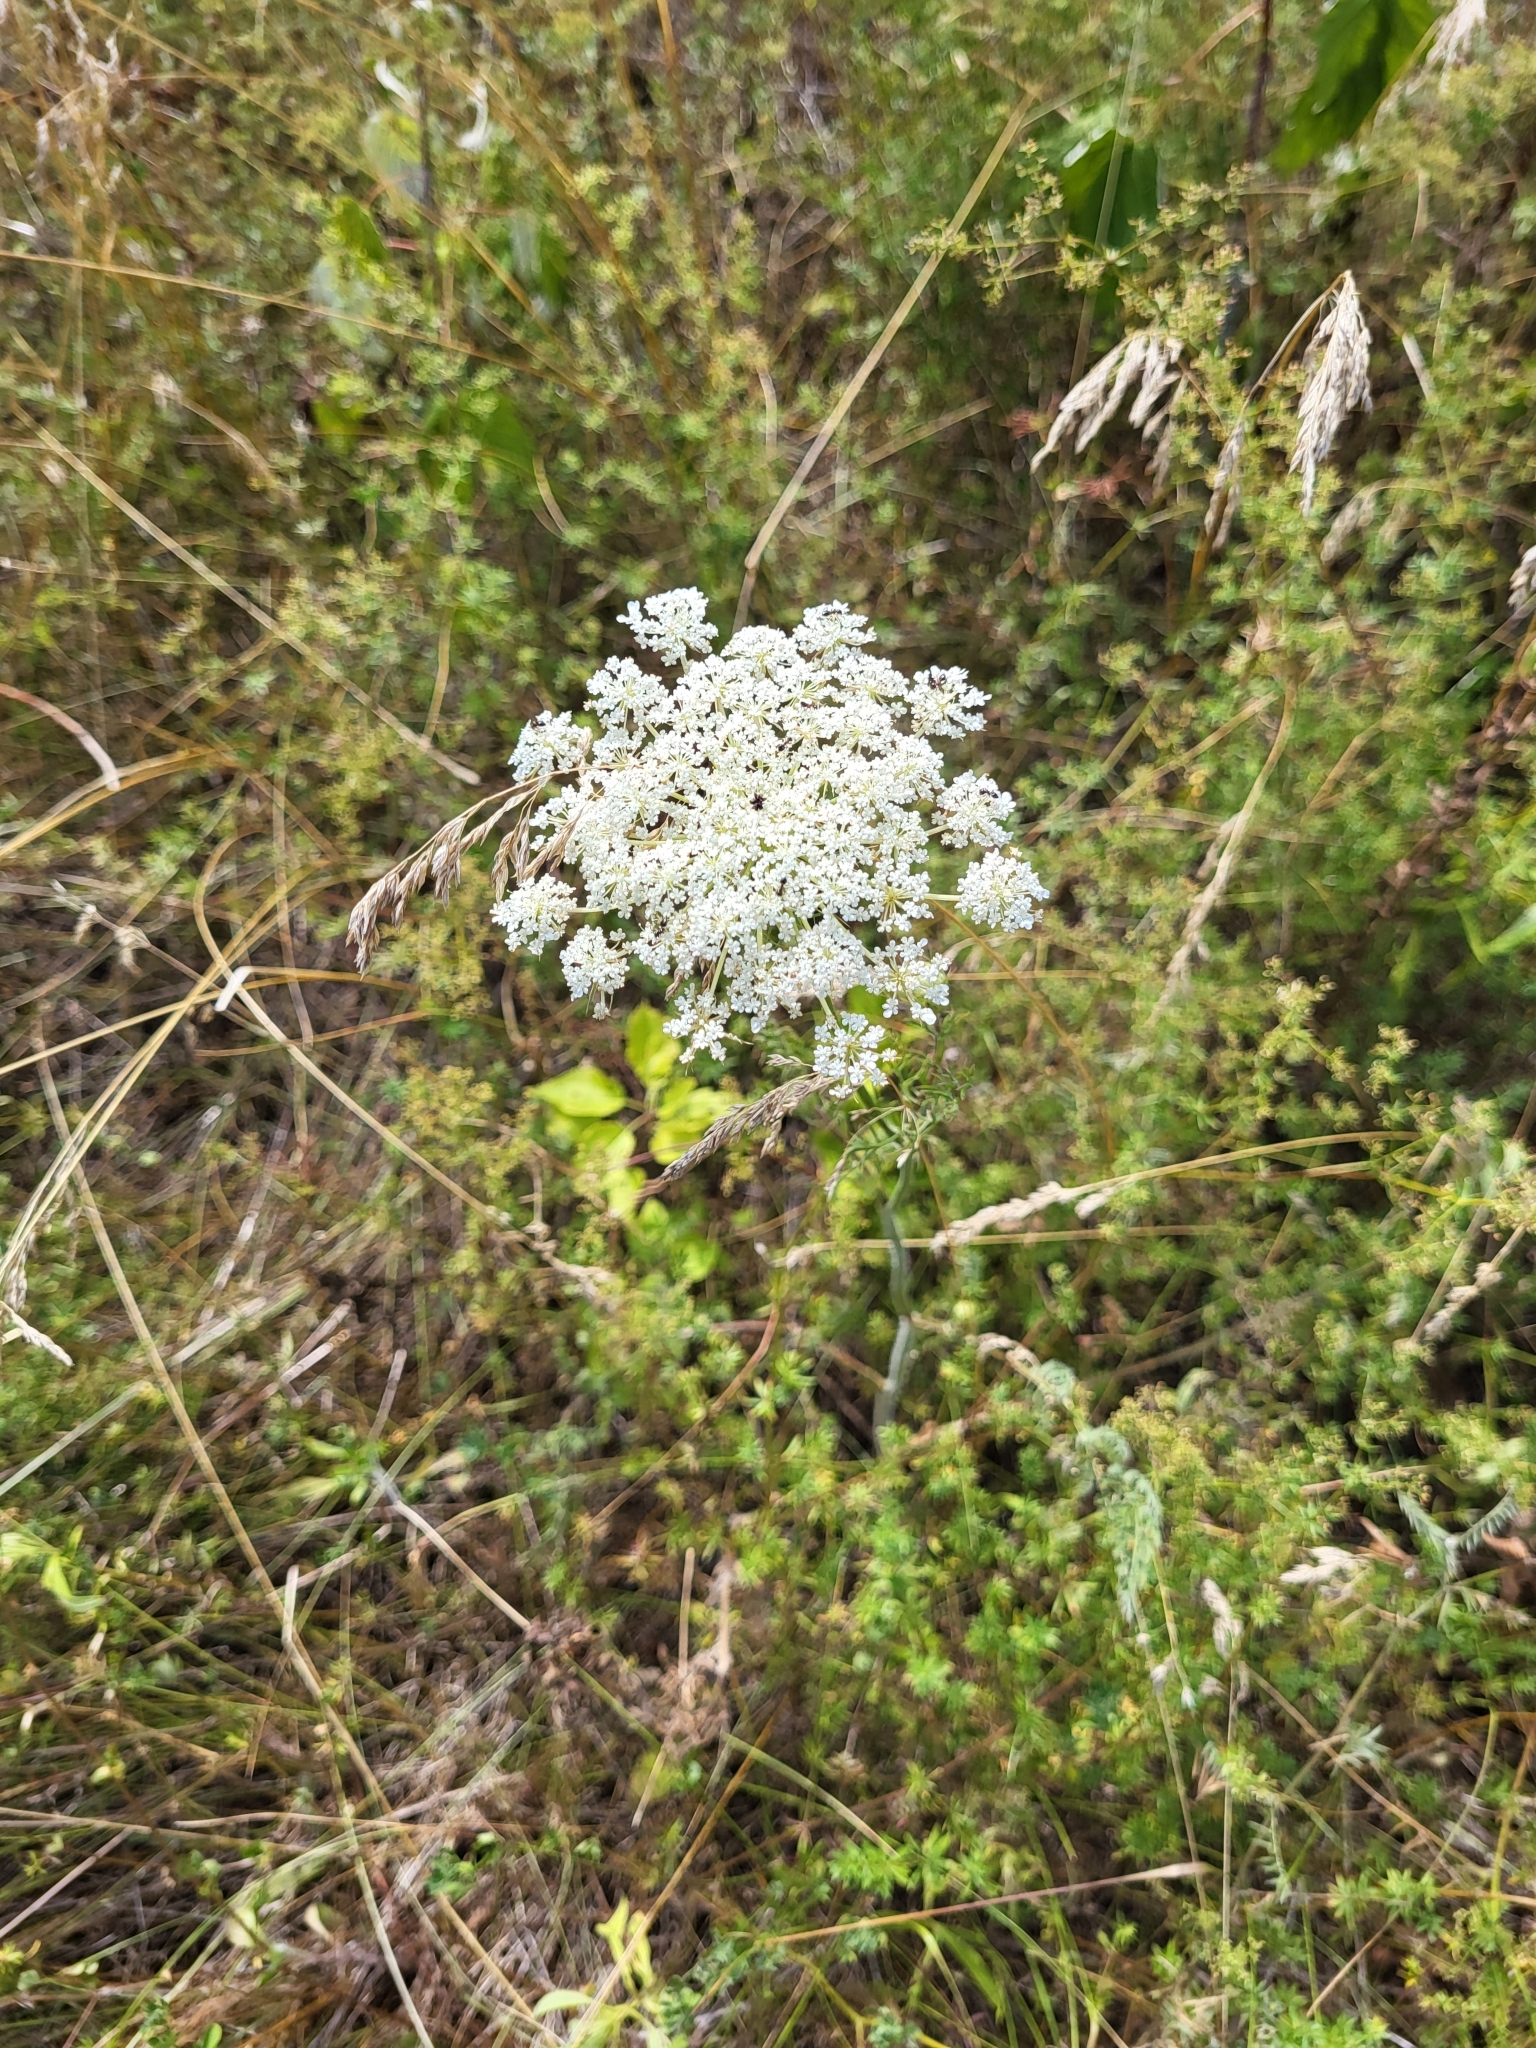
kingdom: Plantae
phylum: Tracheophyta
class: Magnoliopsida
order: Apiales
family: Apiaceae
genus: Daucus
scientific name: Daucus carota
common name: Wild carrot
